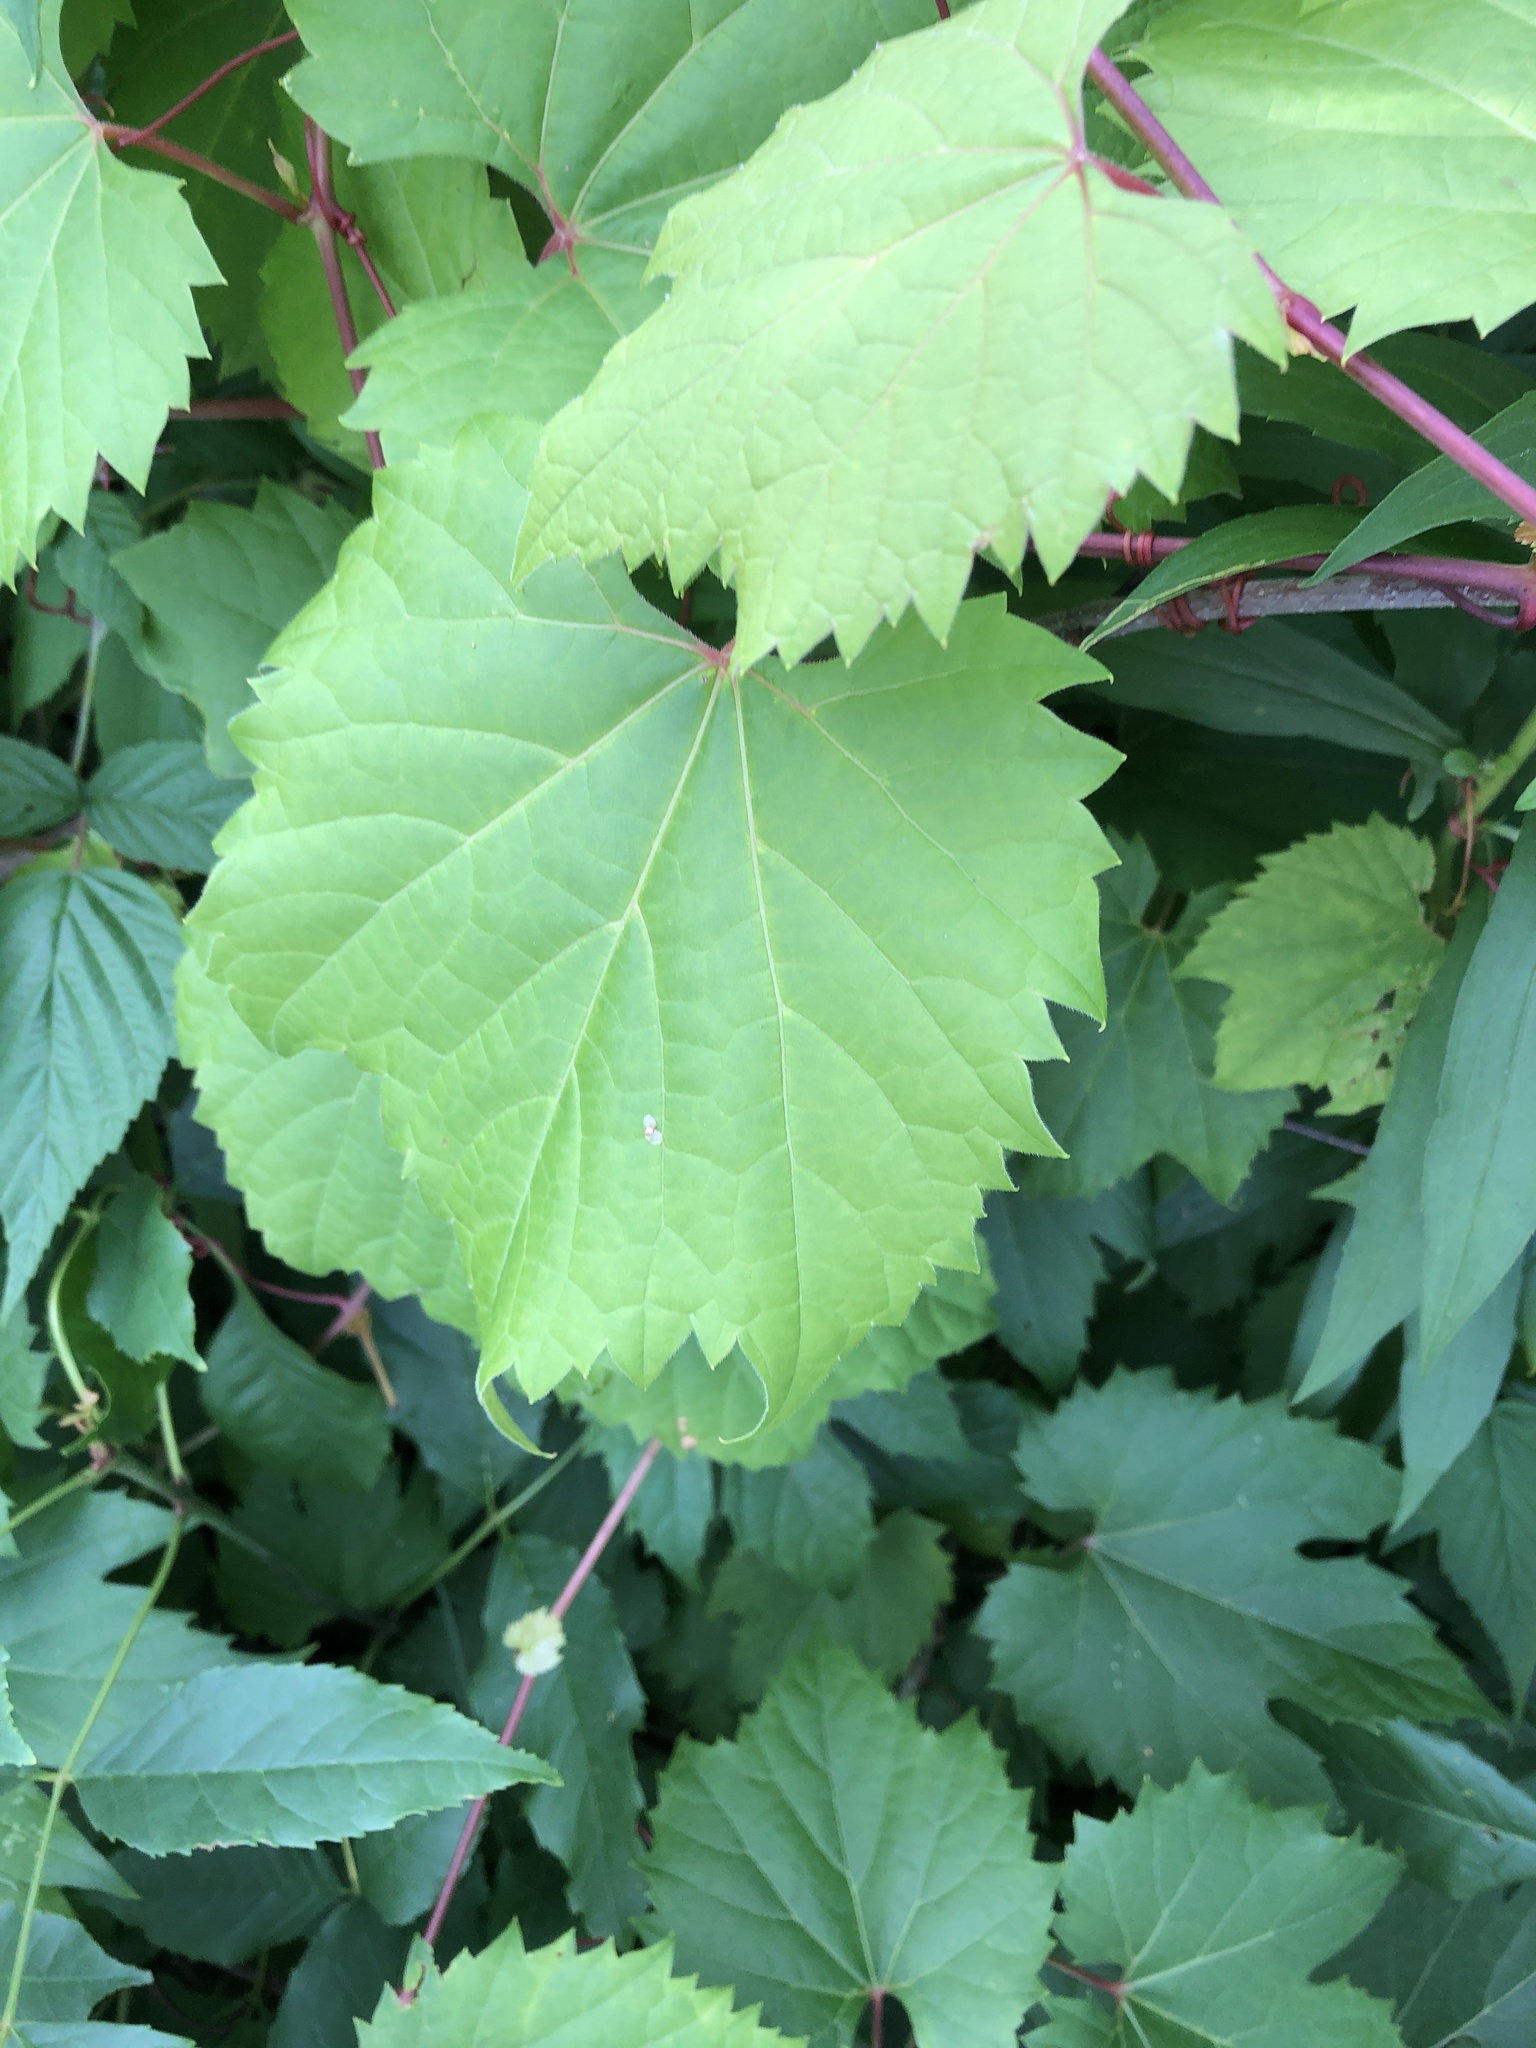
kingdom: Plantae
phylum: Tracheophyta
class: Magnoliopsida
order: Vitales
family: Vitaceae
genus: Vitis
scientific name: Vitis riparia
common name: Frost grape
